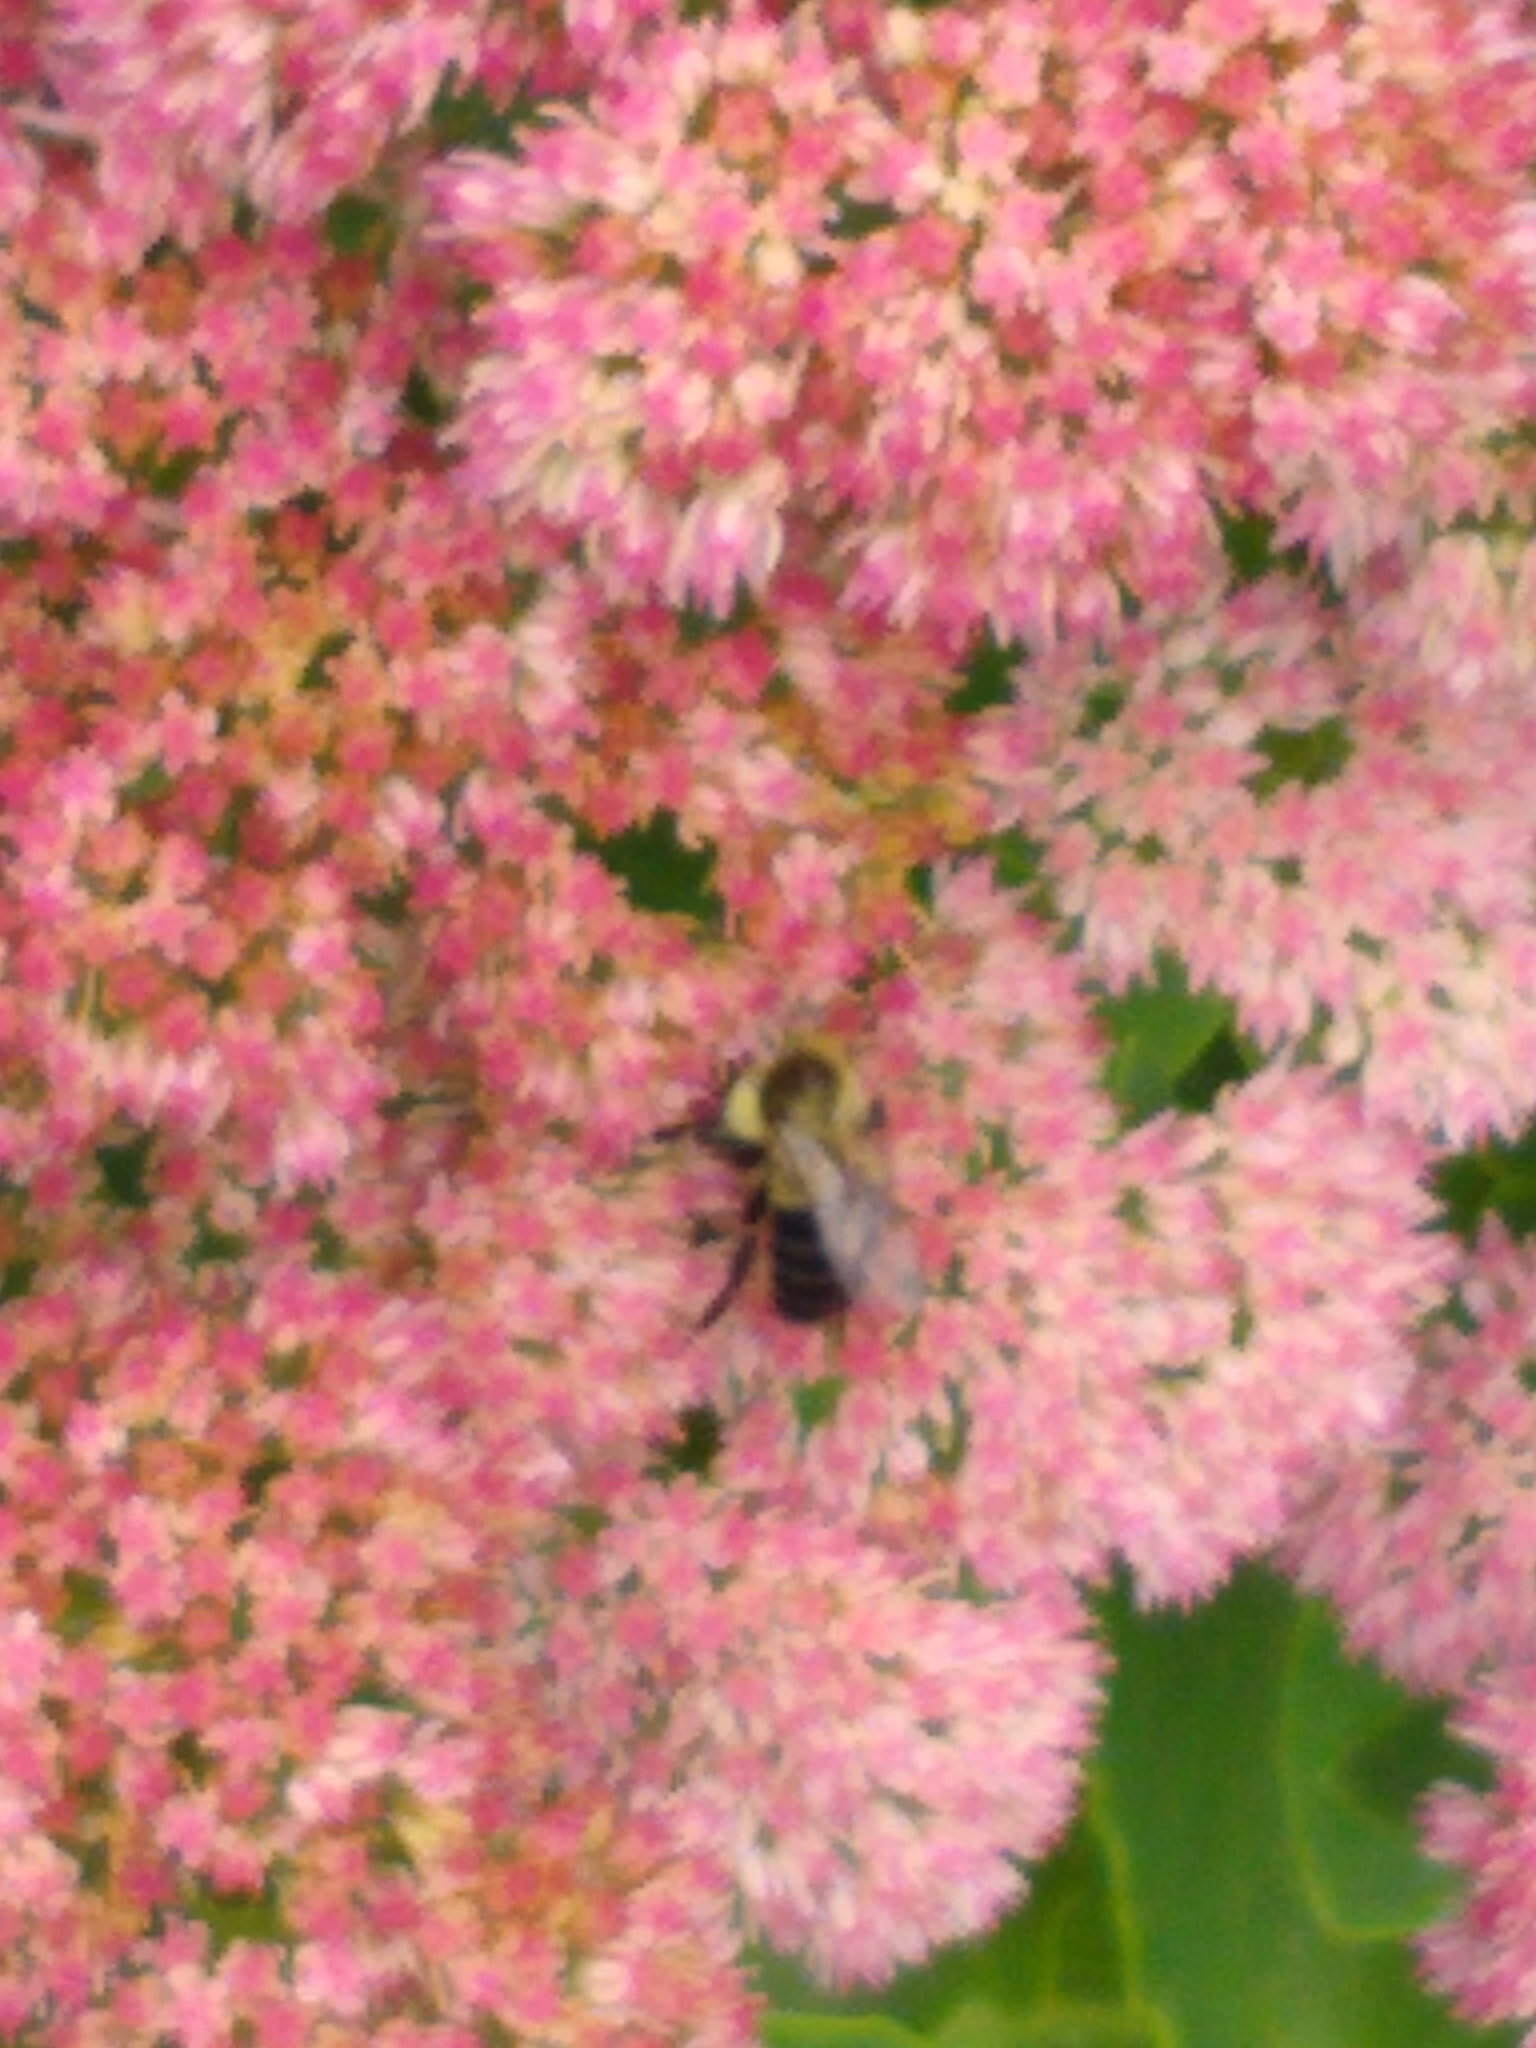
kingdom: Animalia
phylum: Arthropoda
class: Insecta
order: Hymenoptera
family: Apidae
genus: Bombus
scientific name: Bombus impatiens
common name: Common eastern bumble bee
